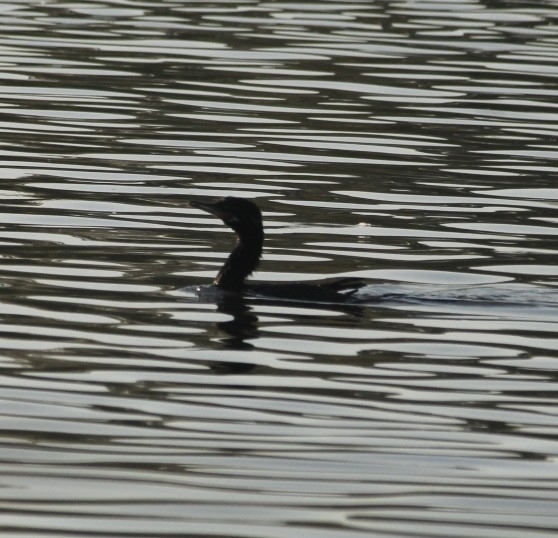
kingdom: Animalia
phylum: Chordata
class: Aves
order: Suliformes
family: Phalacrocoracidae
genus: Phalacrocorax
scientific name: Phalacrocorax brasilianus
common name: Neotropic cormorant
